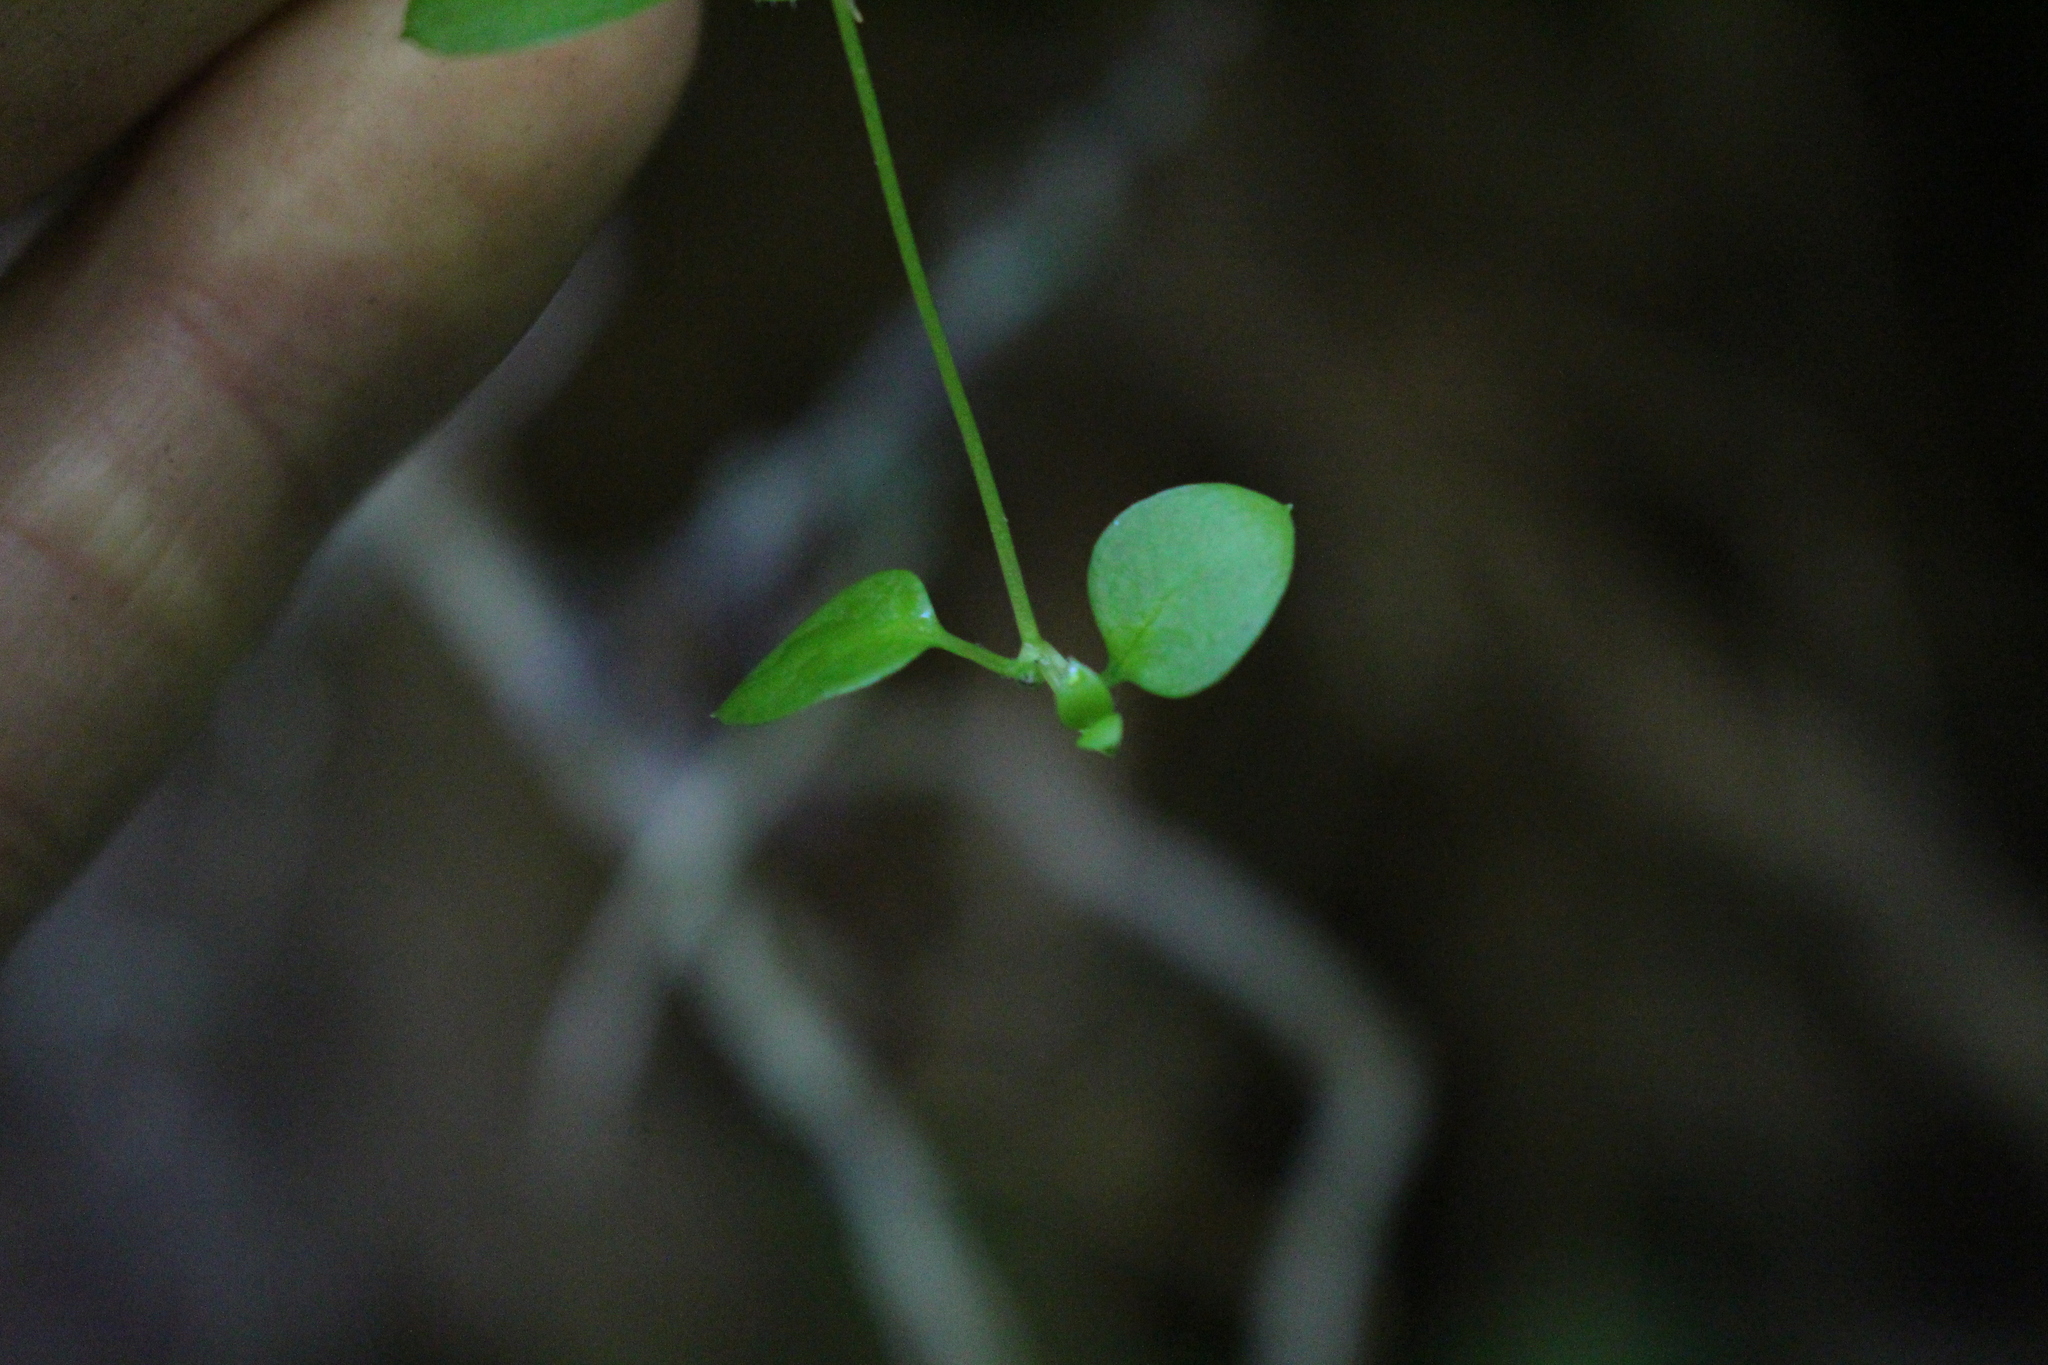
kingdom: Plantae
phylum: Tracheophyta
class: Magnoliopsida
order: Caryophyllales
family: Caryophyllaceae
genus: Stellaria
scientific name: Stellaria parviflora
